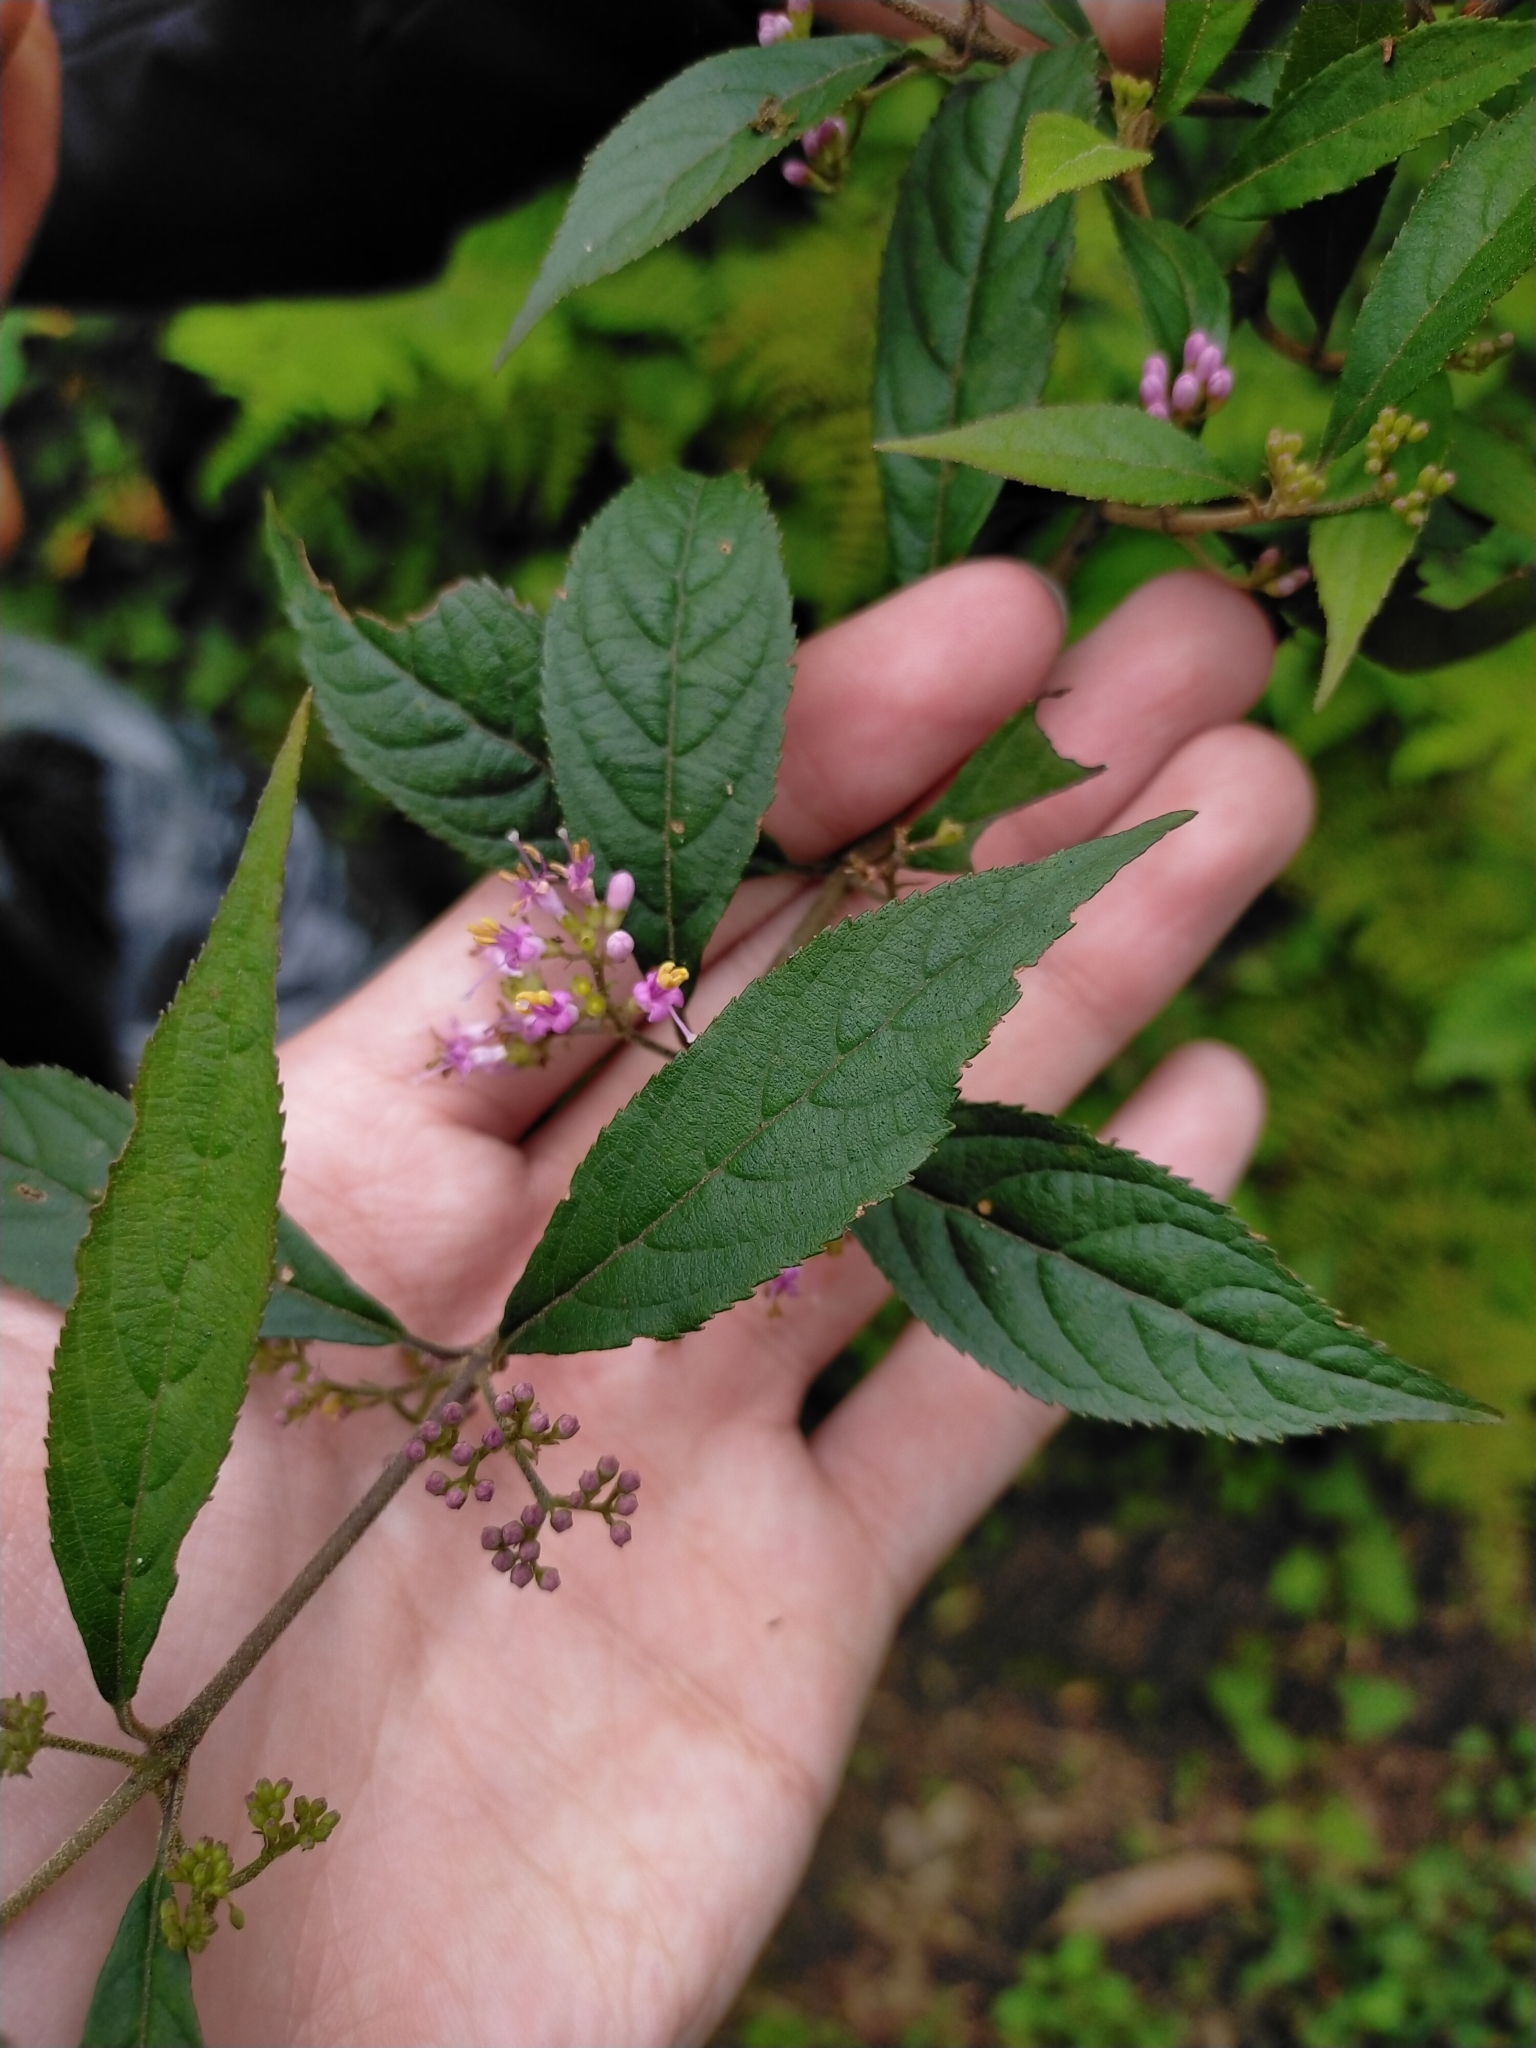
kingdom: Plantae
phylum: Tracheophyta
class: Magnoliopsida
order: Lamiales
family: Lamiaceae
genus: Callicarpa
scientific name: Callicarpa randaiensis
